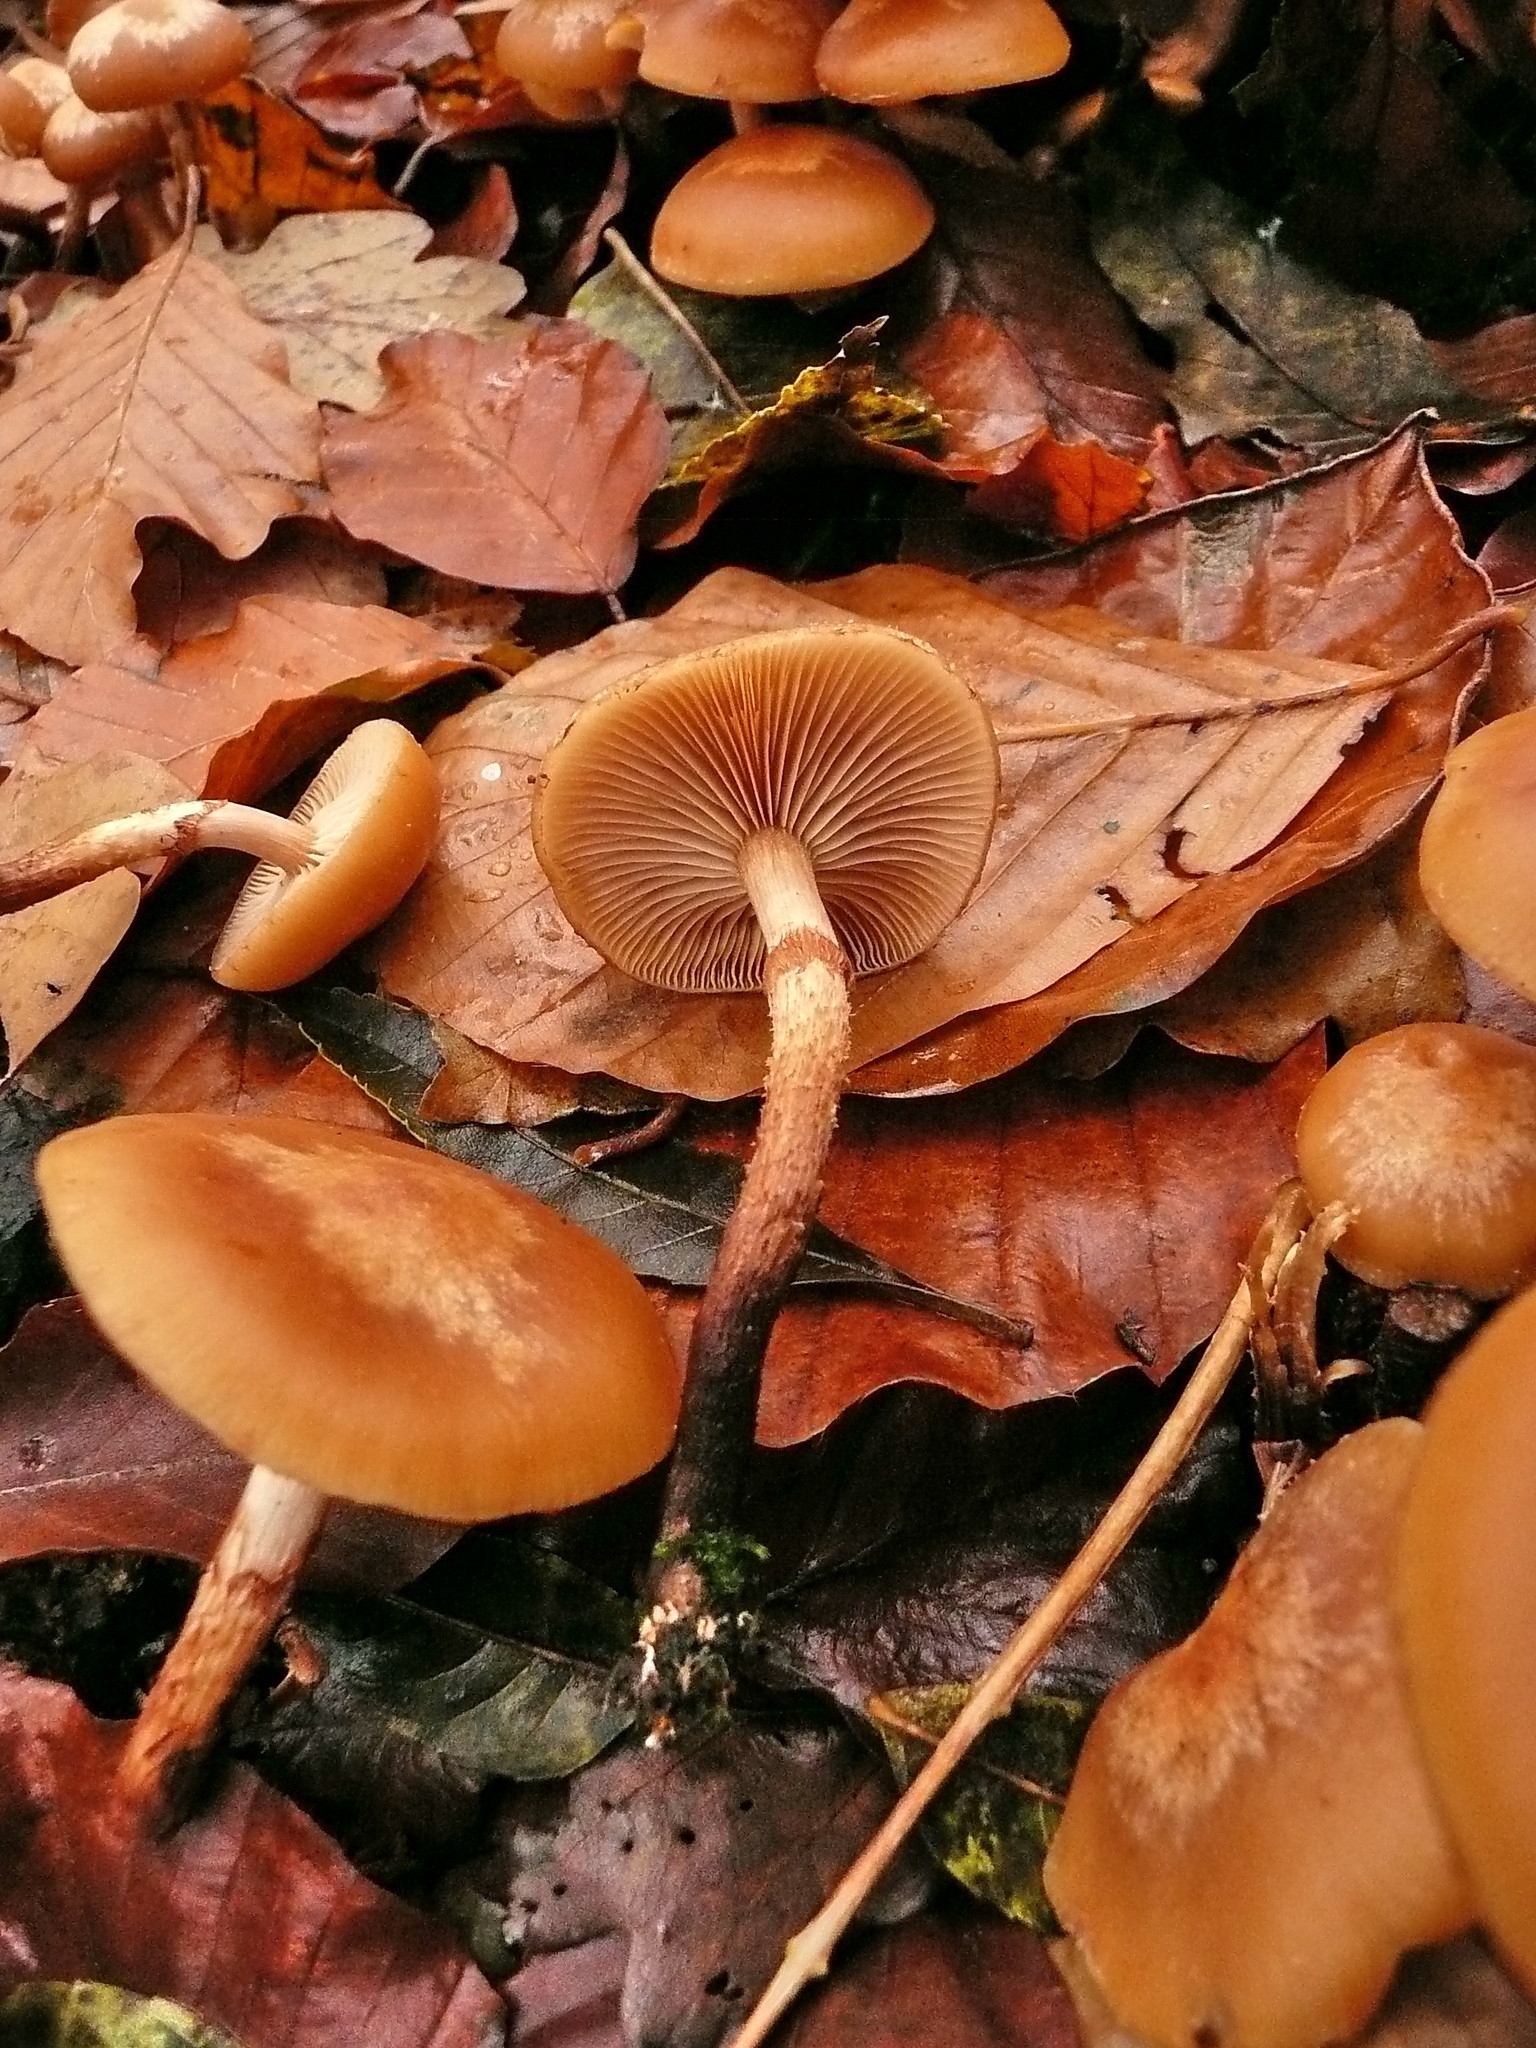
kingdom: Fungi
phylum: Basidiomycota
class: Agaricomycetes
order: Agaricales
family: Strophariaceae
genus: Kuehneromyces
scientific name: Kuehneromyces mutabilis
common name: Sheathed woodtuft
